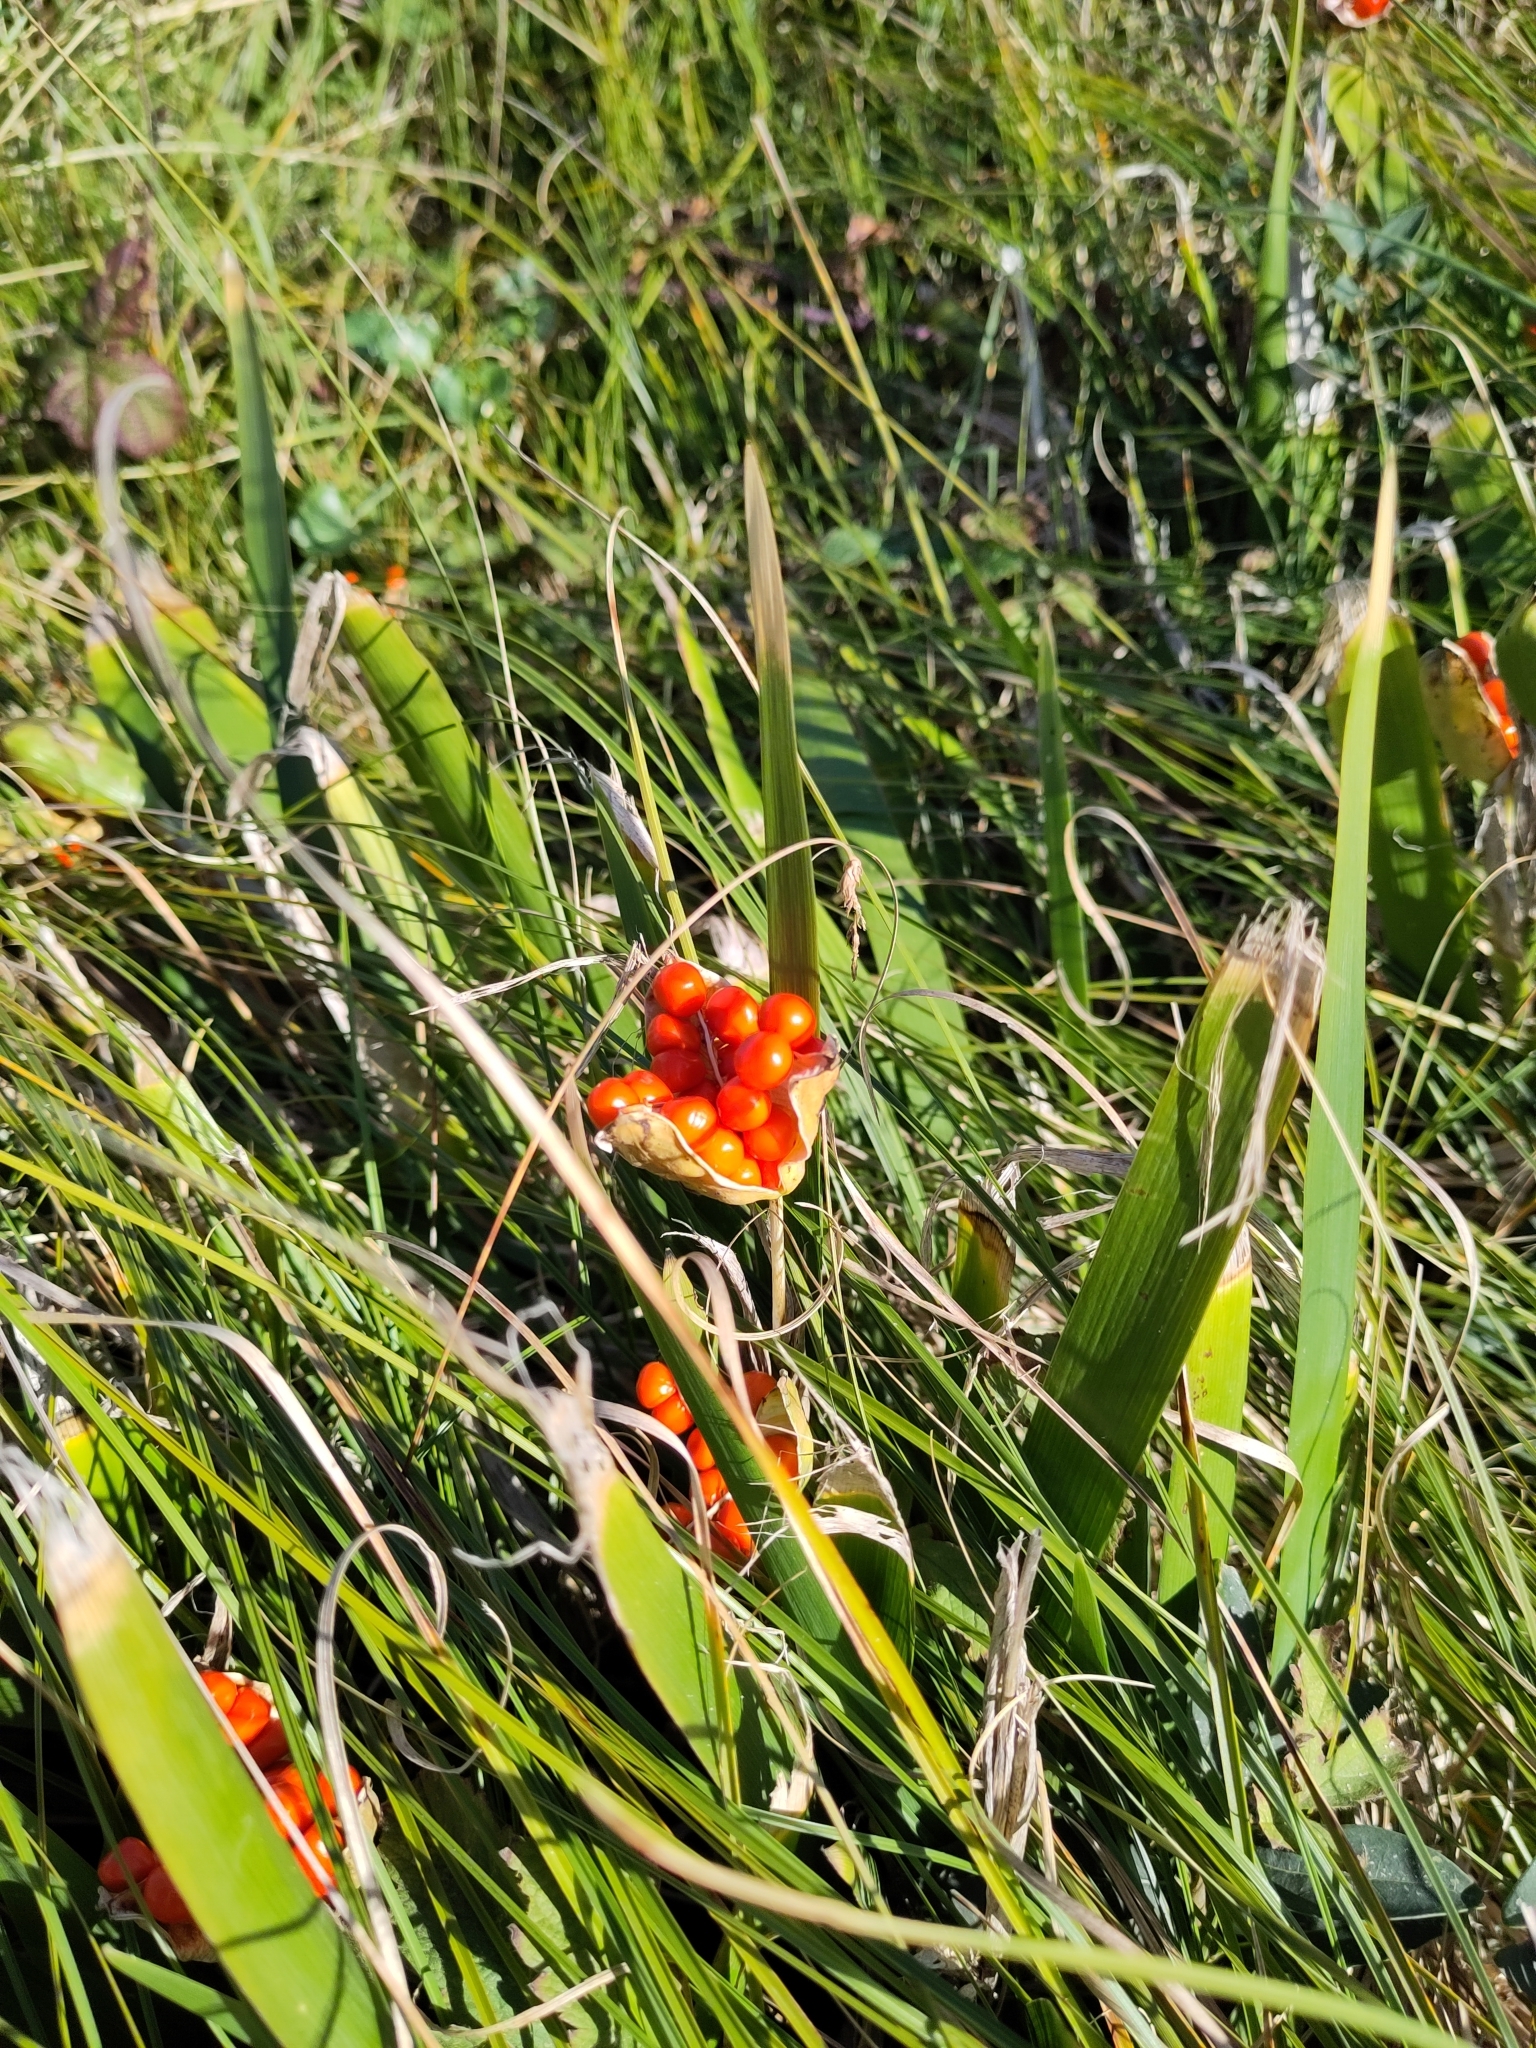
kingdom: Plantae
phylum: Tracheophyta
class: Liliopsida
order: Asparagales
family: Iridaceae
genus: Iris
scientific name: Iris foetidissima
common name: Stinking iris
